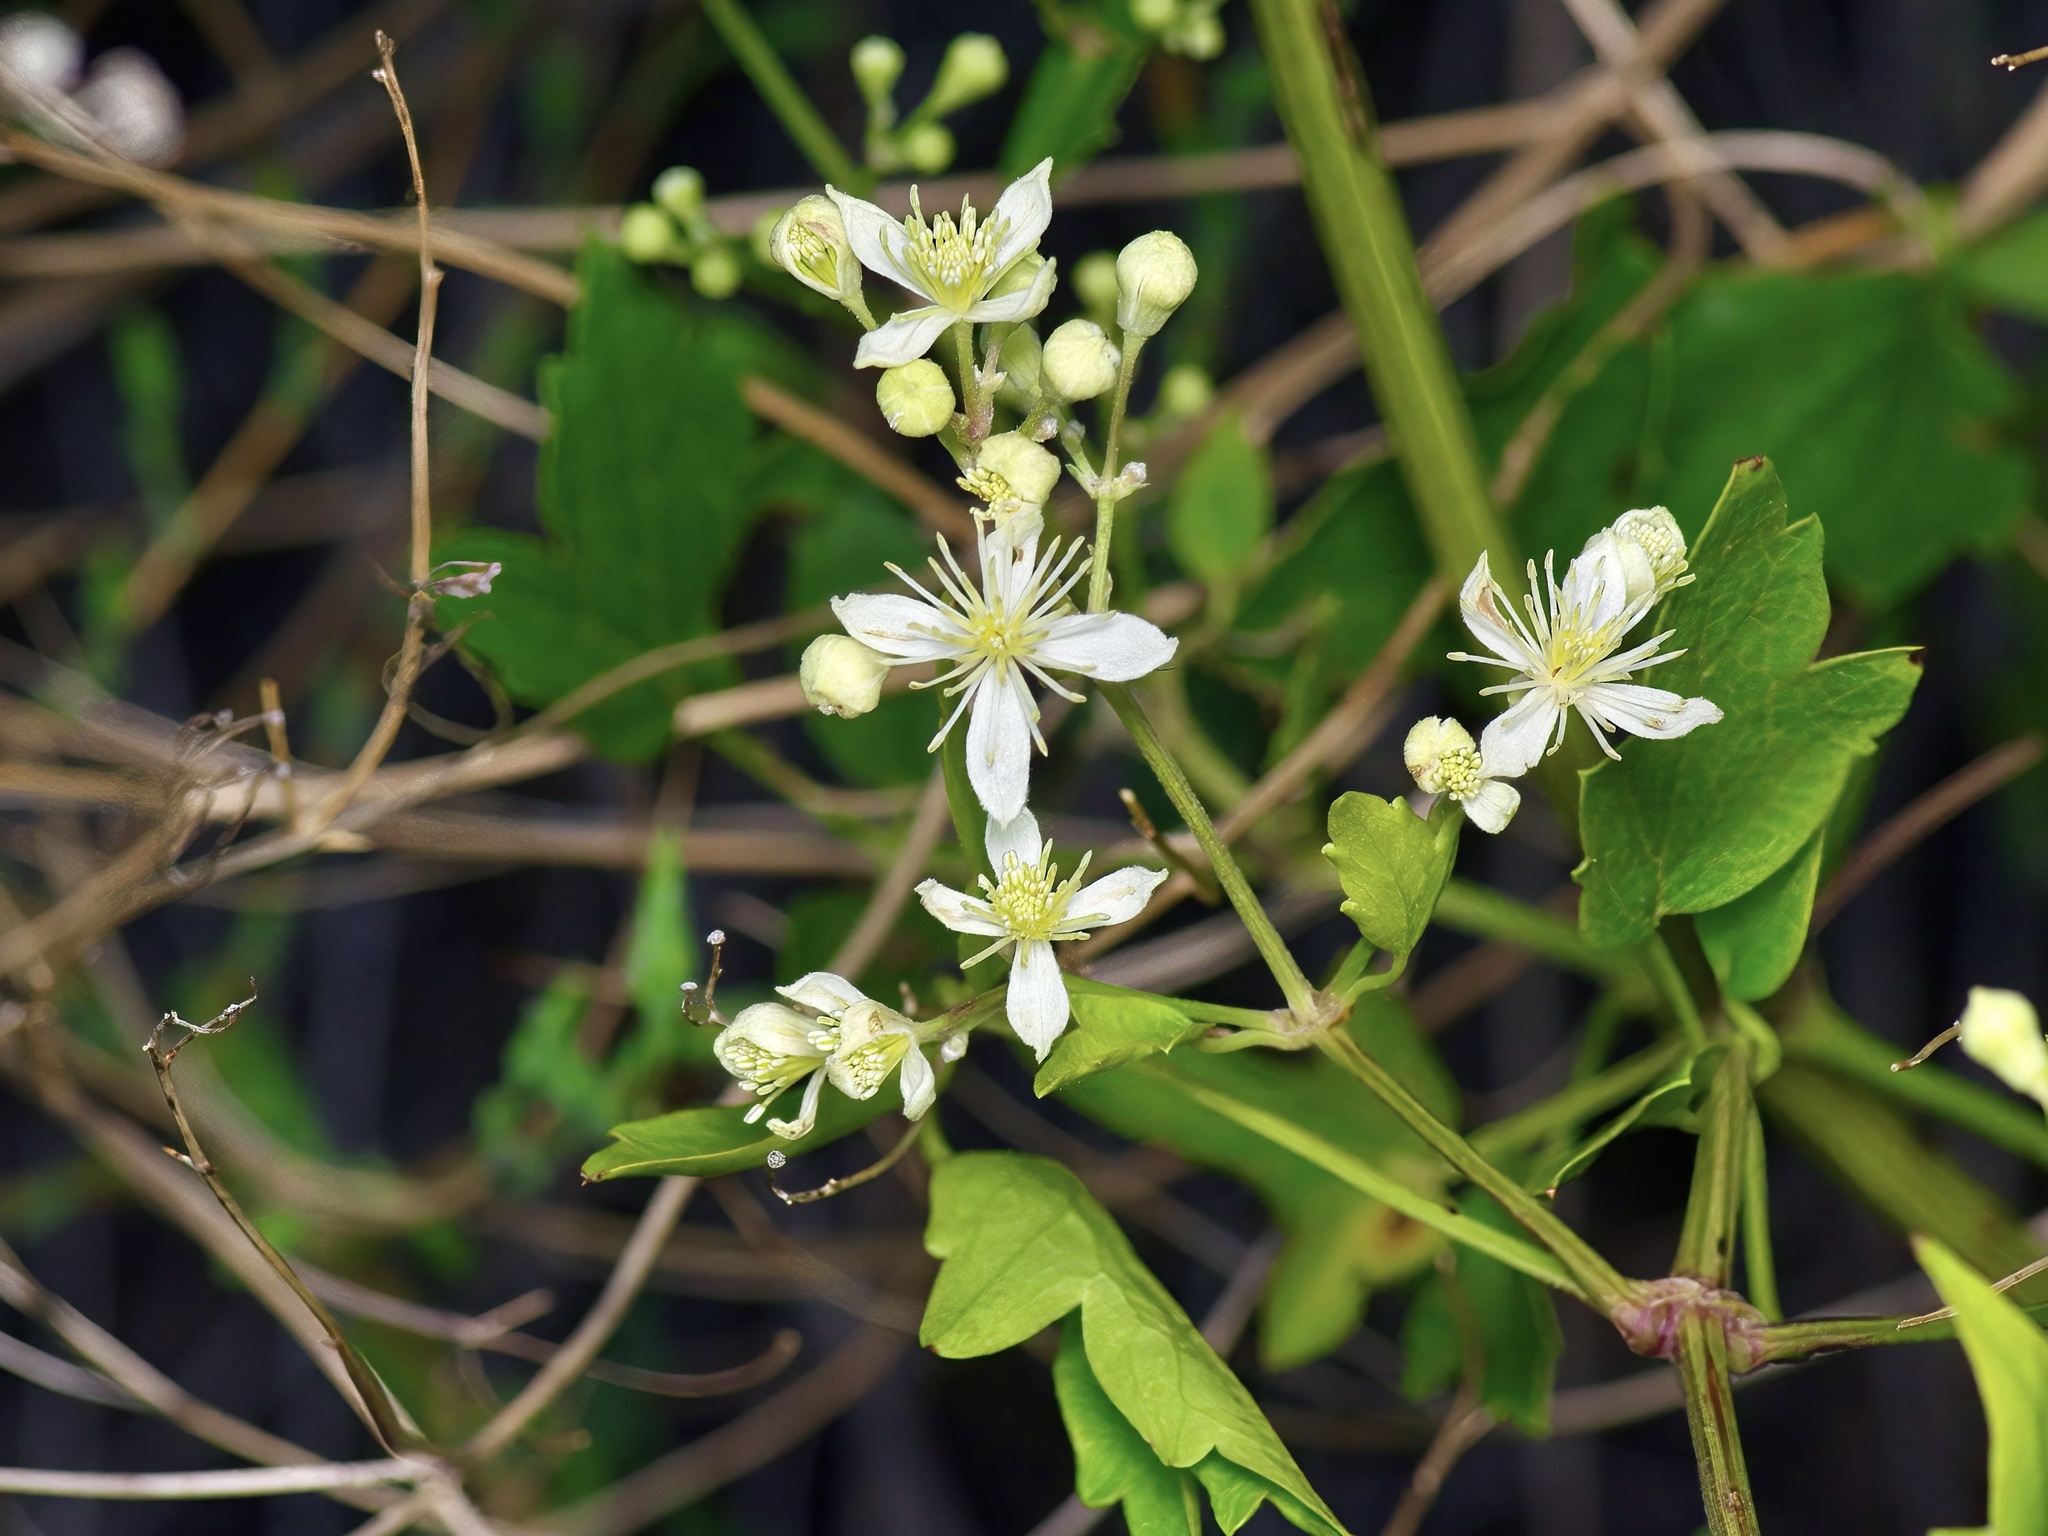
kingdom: Plantae
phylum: Tracheophyta
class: Magnoliopsida
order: Ranunculales
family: Ranunculaceae
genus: Clematis
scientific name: Clematis ligusticifolia
